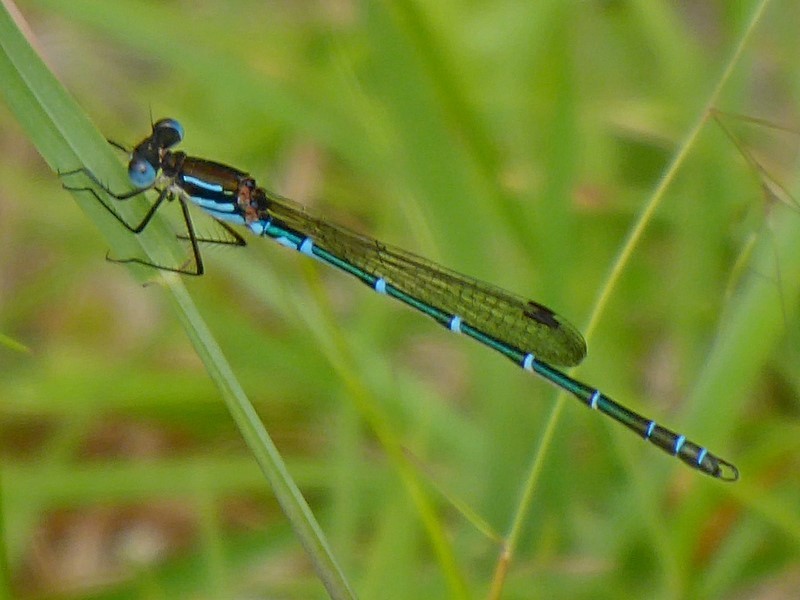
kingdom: Animalia
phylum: Arthropoda
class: Insecta
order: Odonata
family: Lestidae
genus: Austrolestes
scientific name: Austrolestes psyche
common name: Cup ringtail
